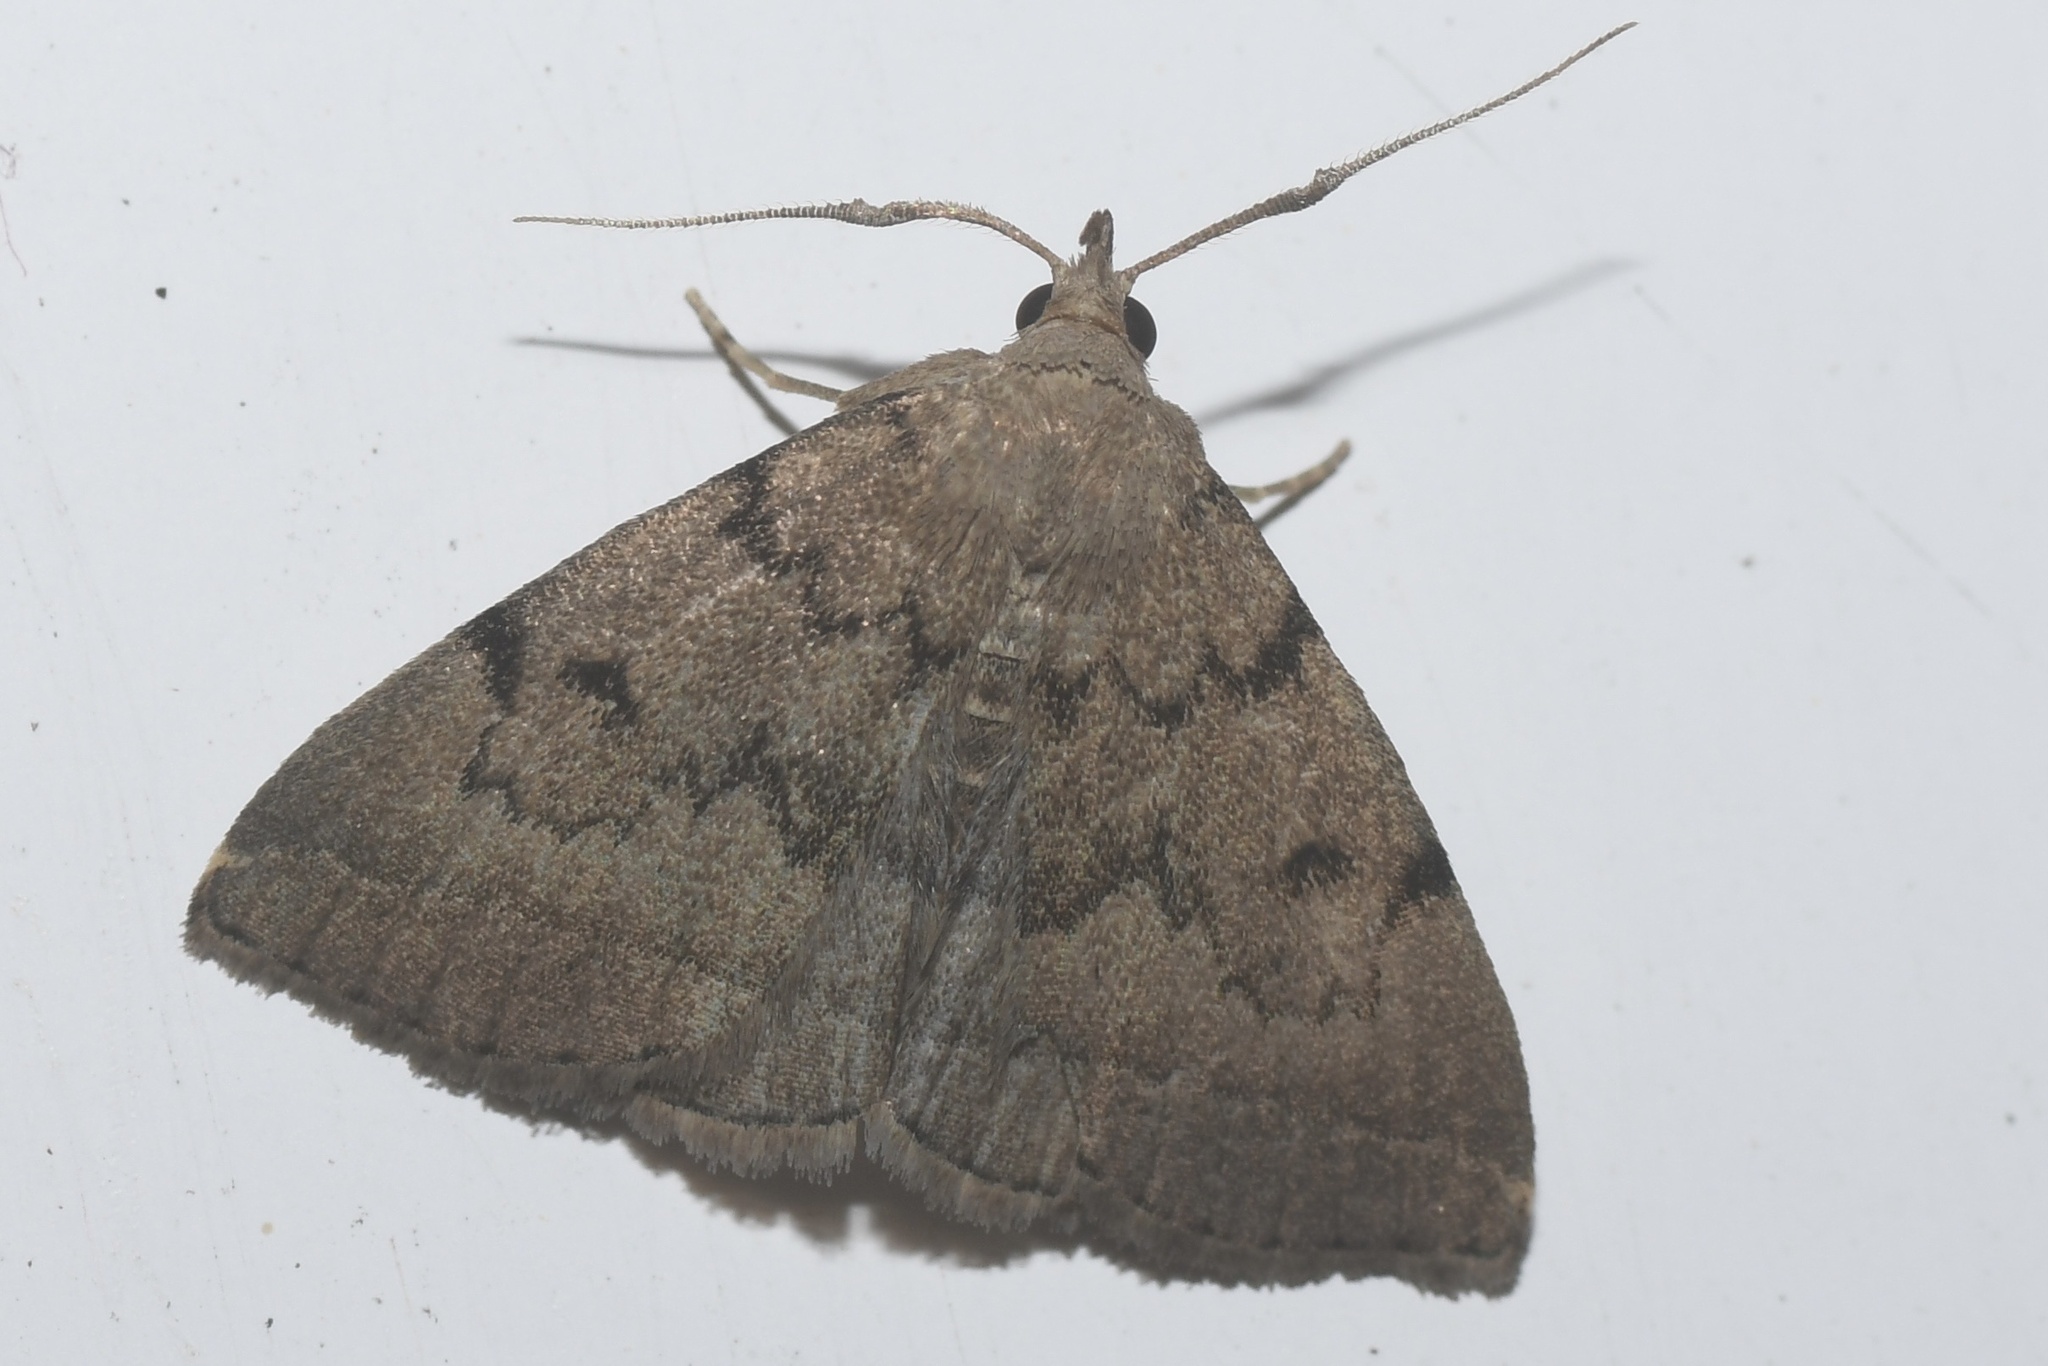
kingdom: Animalia
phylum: Arthropoda
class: Insecta
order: Lepidoptera
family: Erebidae
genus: Zanclognatha
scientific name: Zanclognatha dentata
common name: Toothed fan-foot
